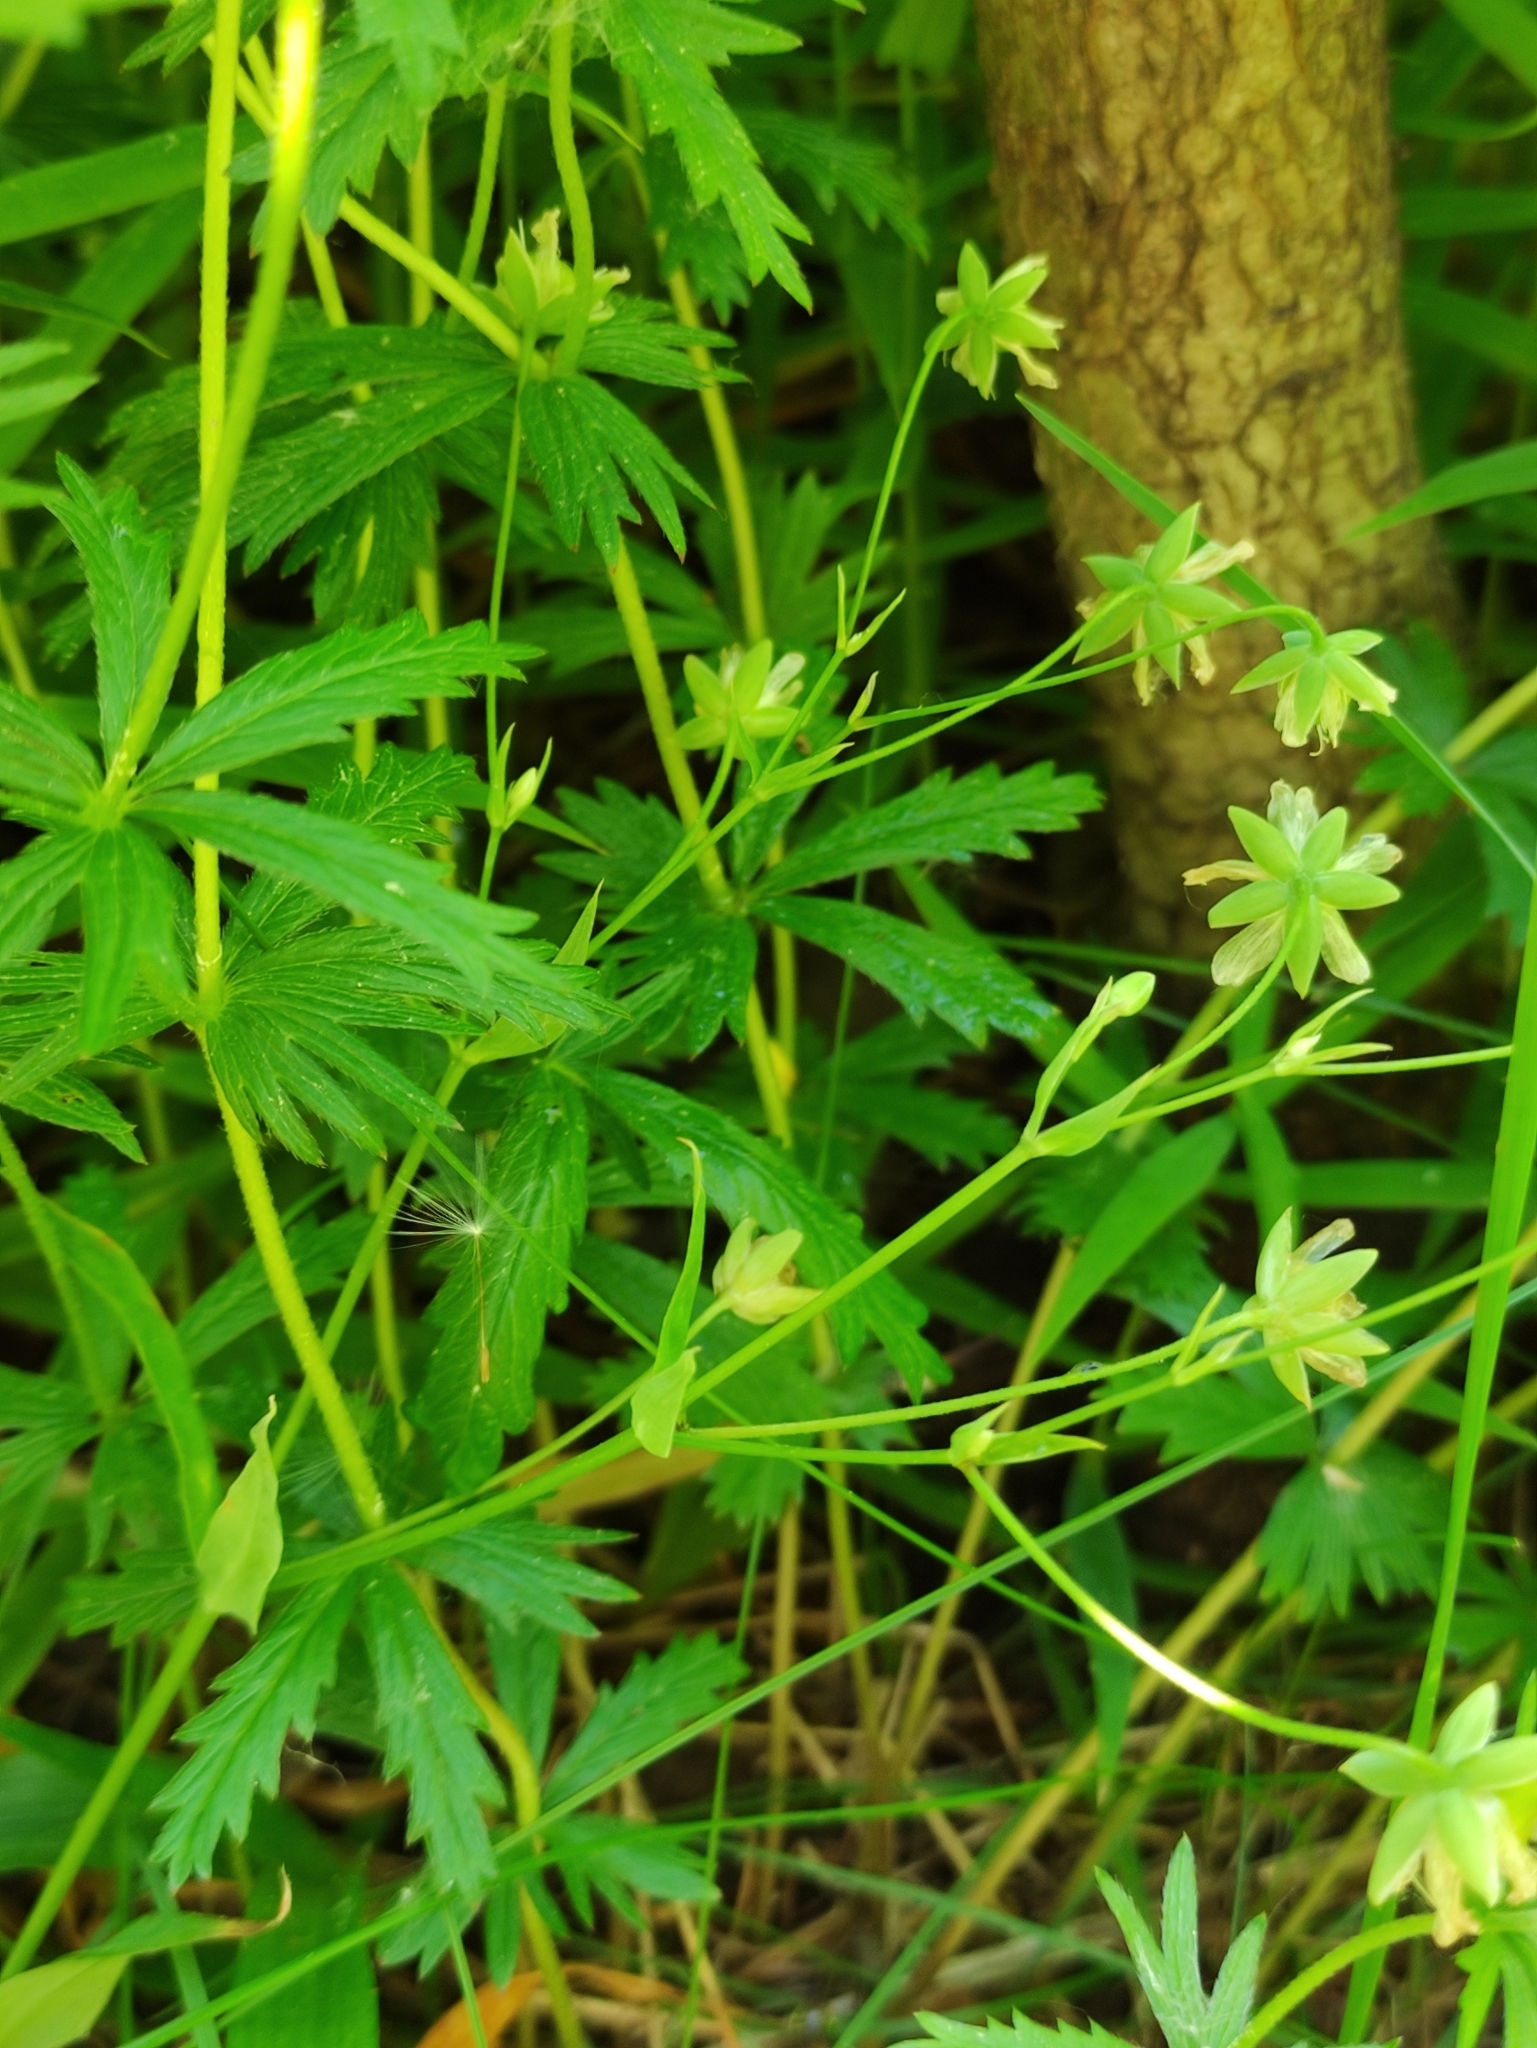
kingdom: Plantae
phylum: Tracheophyta
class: Magnoliopsida
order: Rosales
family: Rosaceae
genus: Potentilla
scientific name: Potentilla erecta
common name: Tormentil
